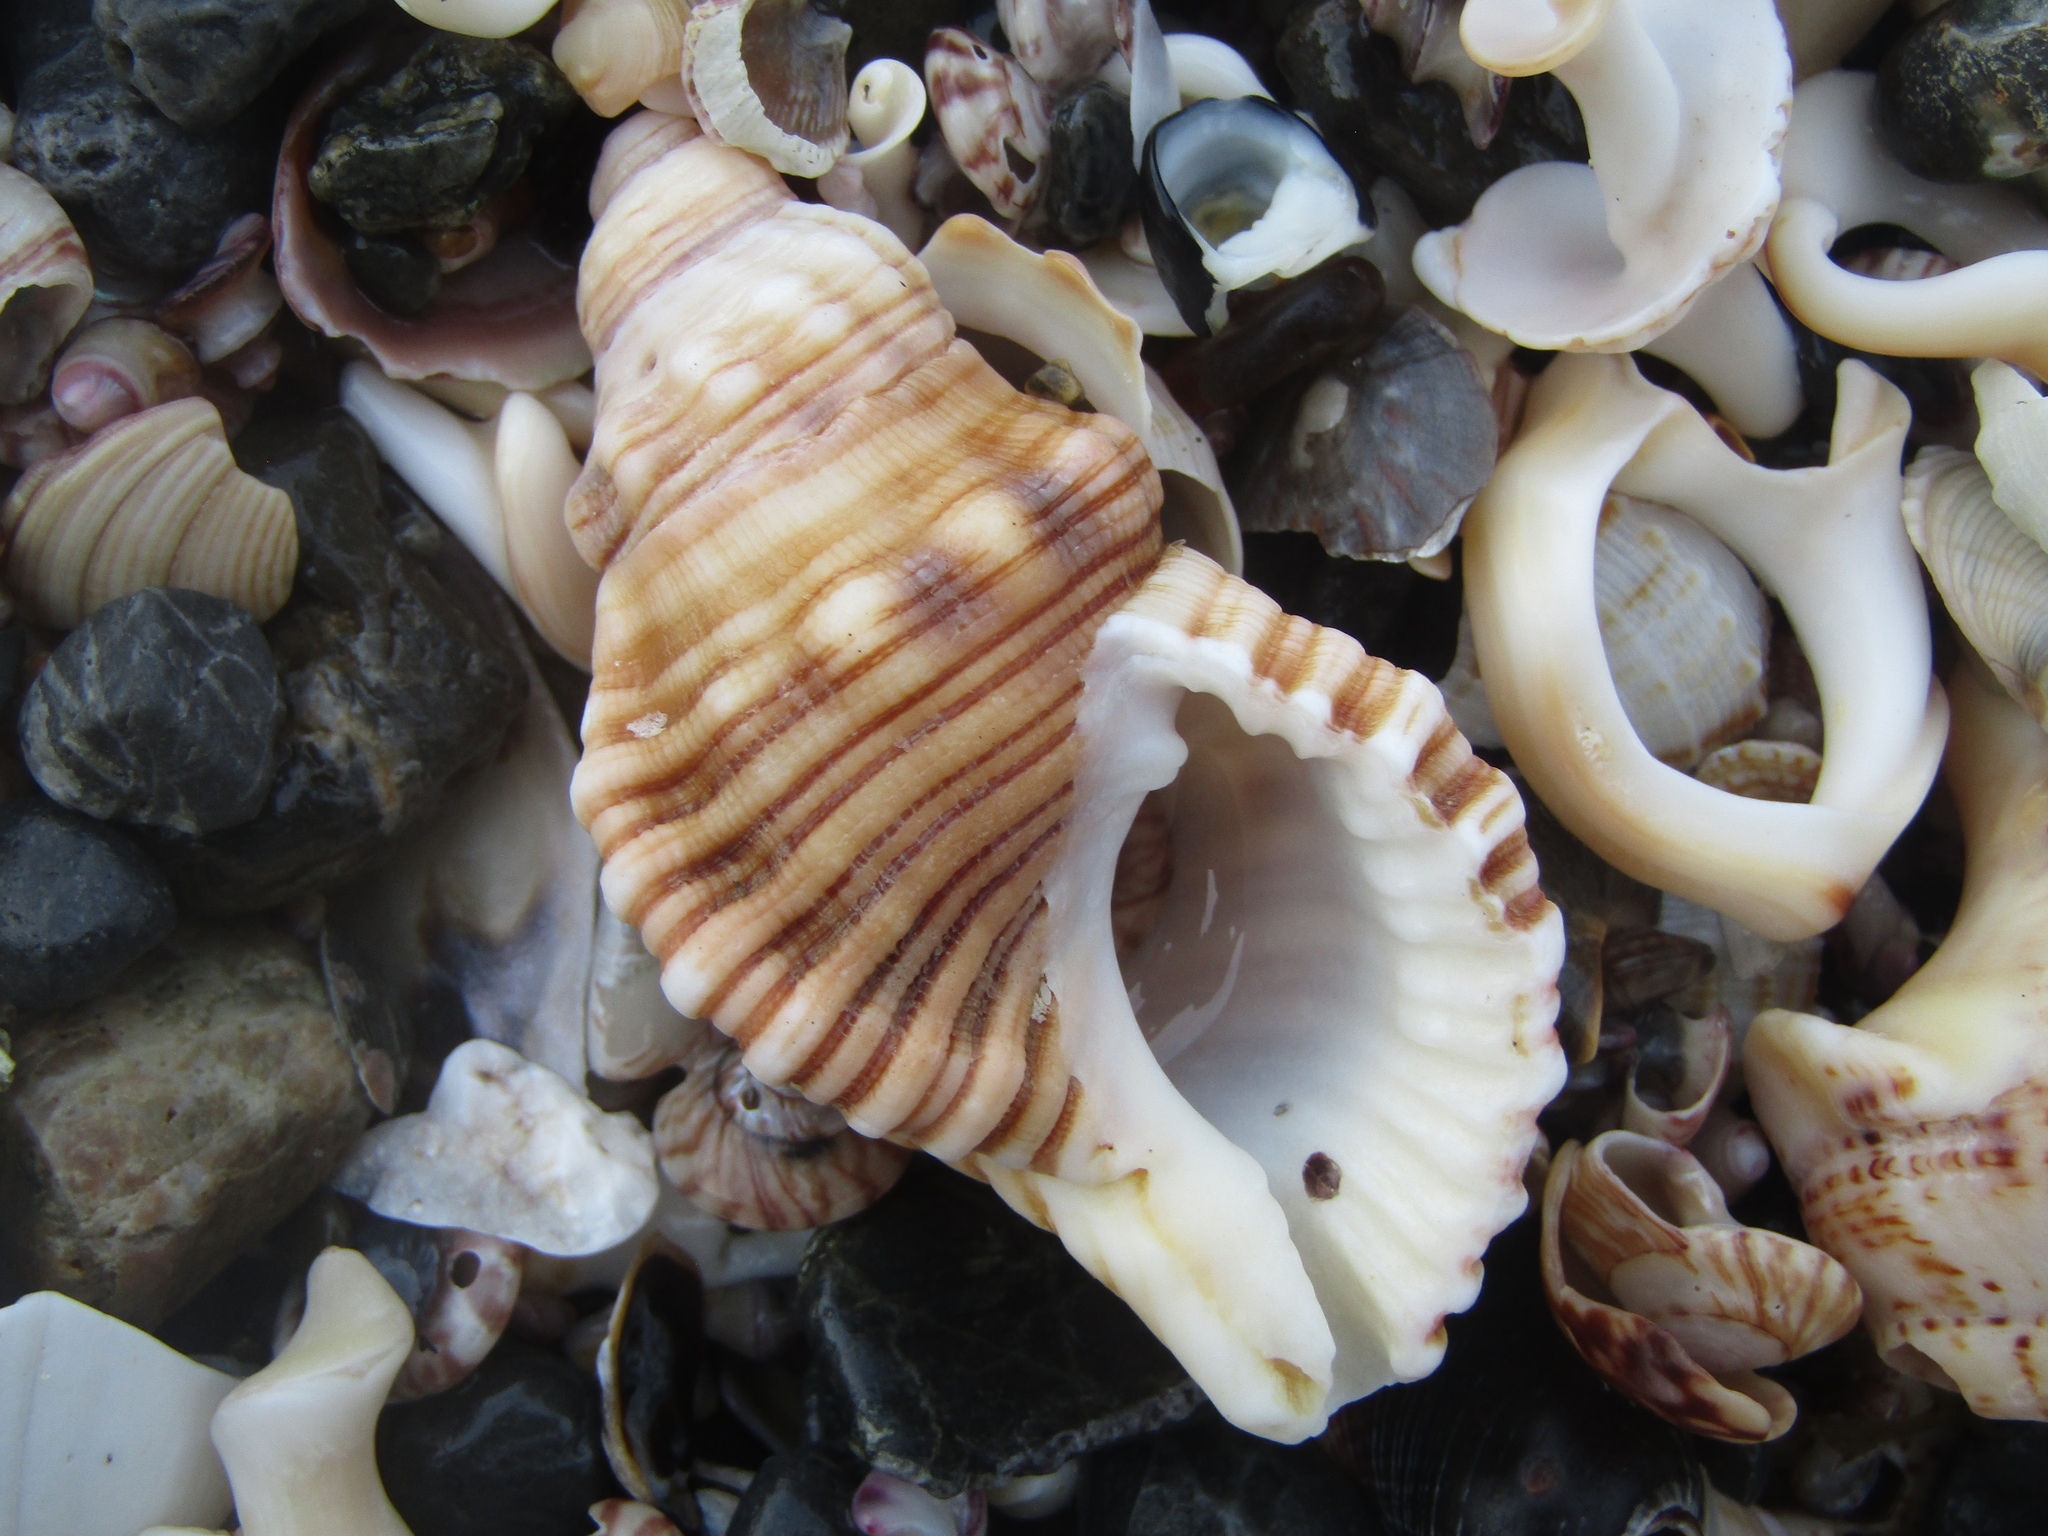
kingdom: Animalia
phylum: Mollusca
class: Gastropoda
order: Littorinimorpha
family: Cymatiidae
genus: Cabestana
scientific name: Cabestana spengleri
